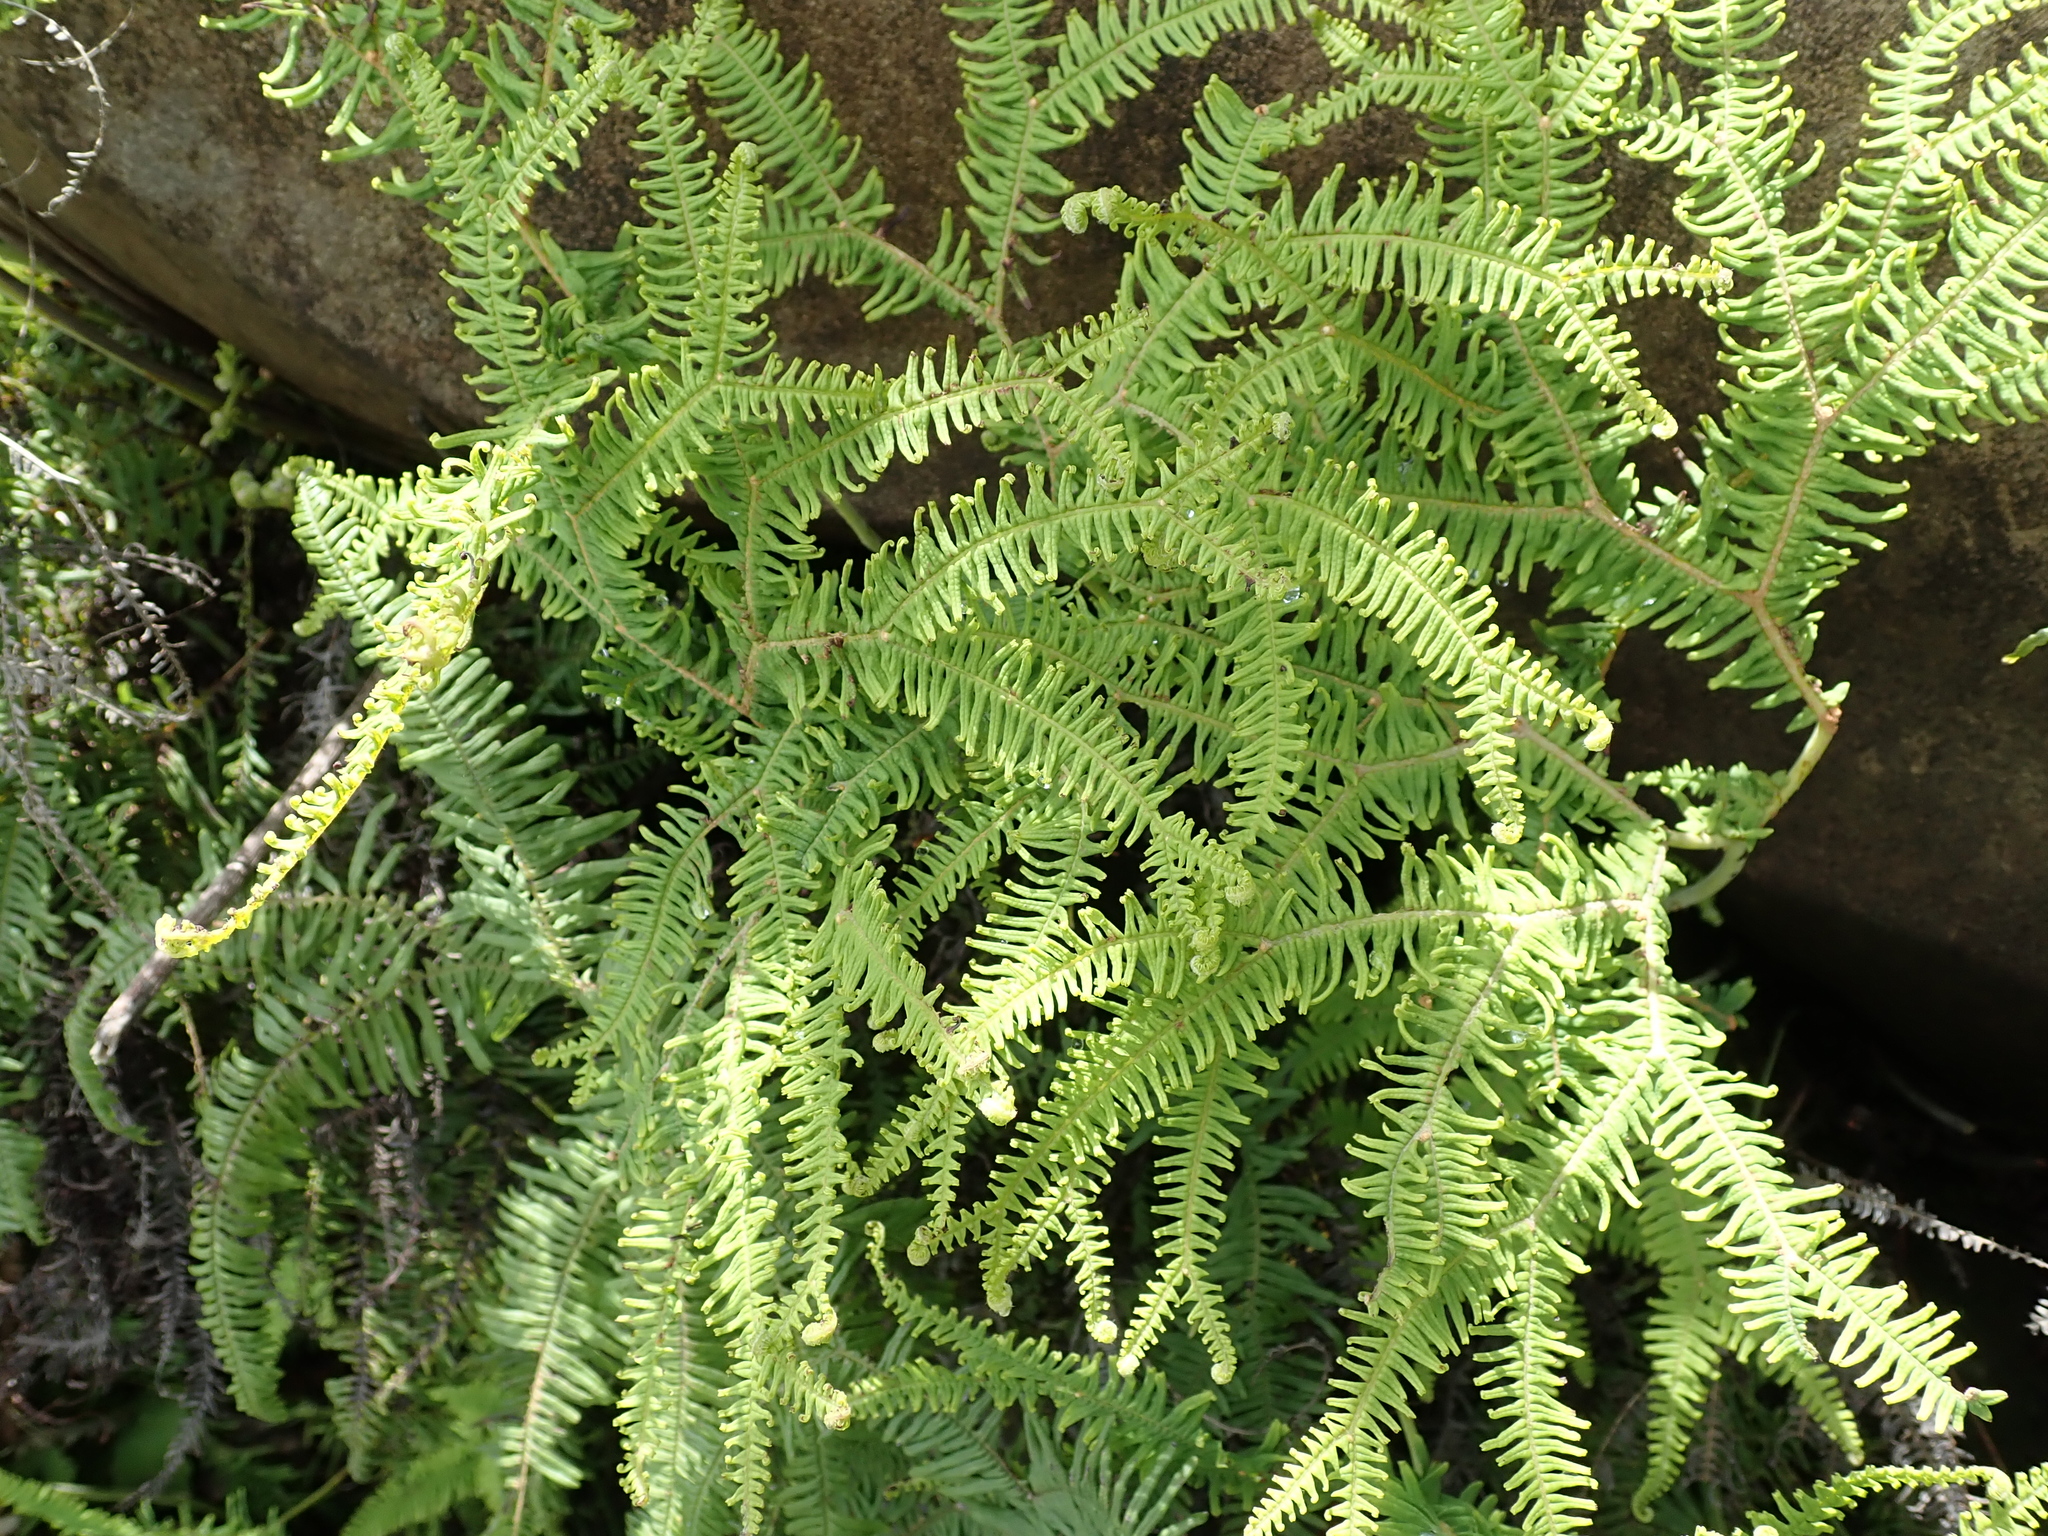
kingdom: Plantae
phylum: Tracheophyta
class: Polypodiopsida
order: Gleicheniales
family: Gleicheniaceae
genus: Sticherus
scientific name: Sticherus umbraculifer
